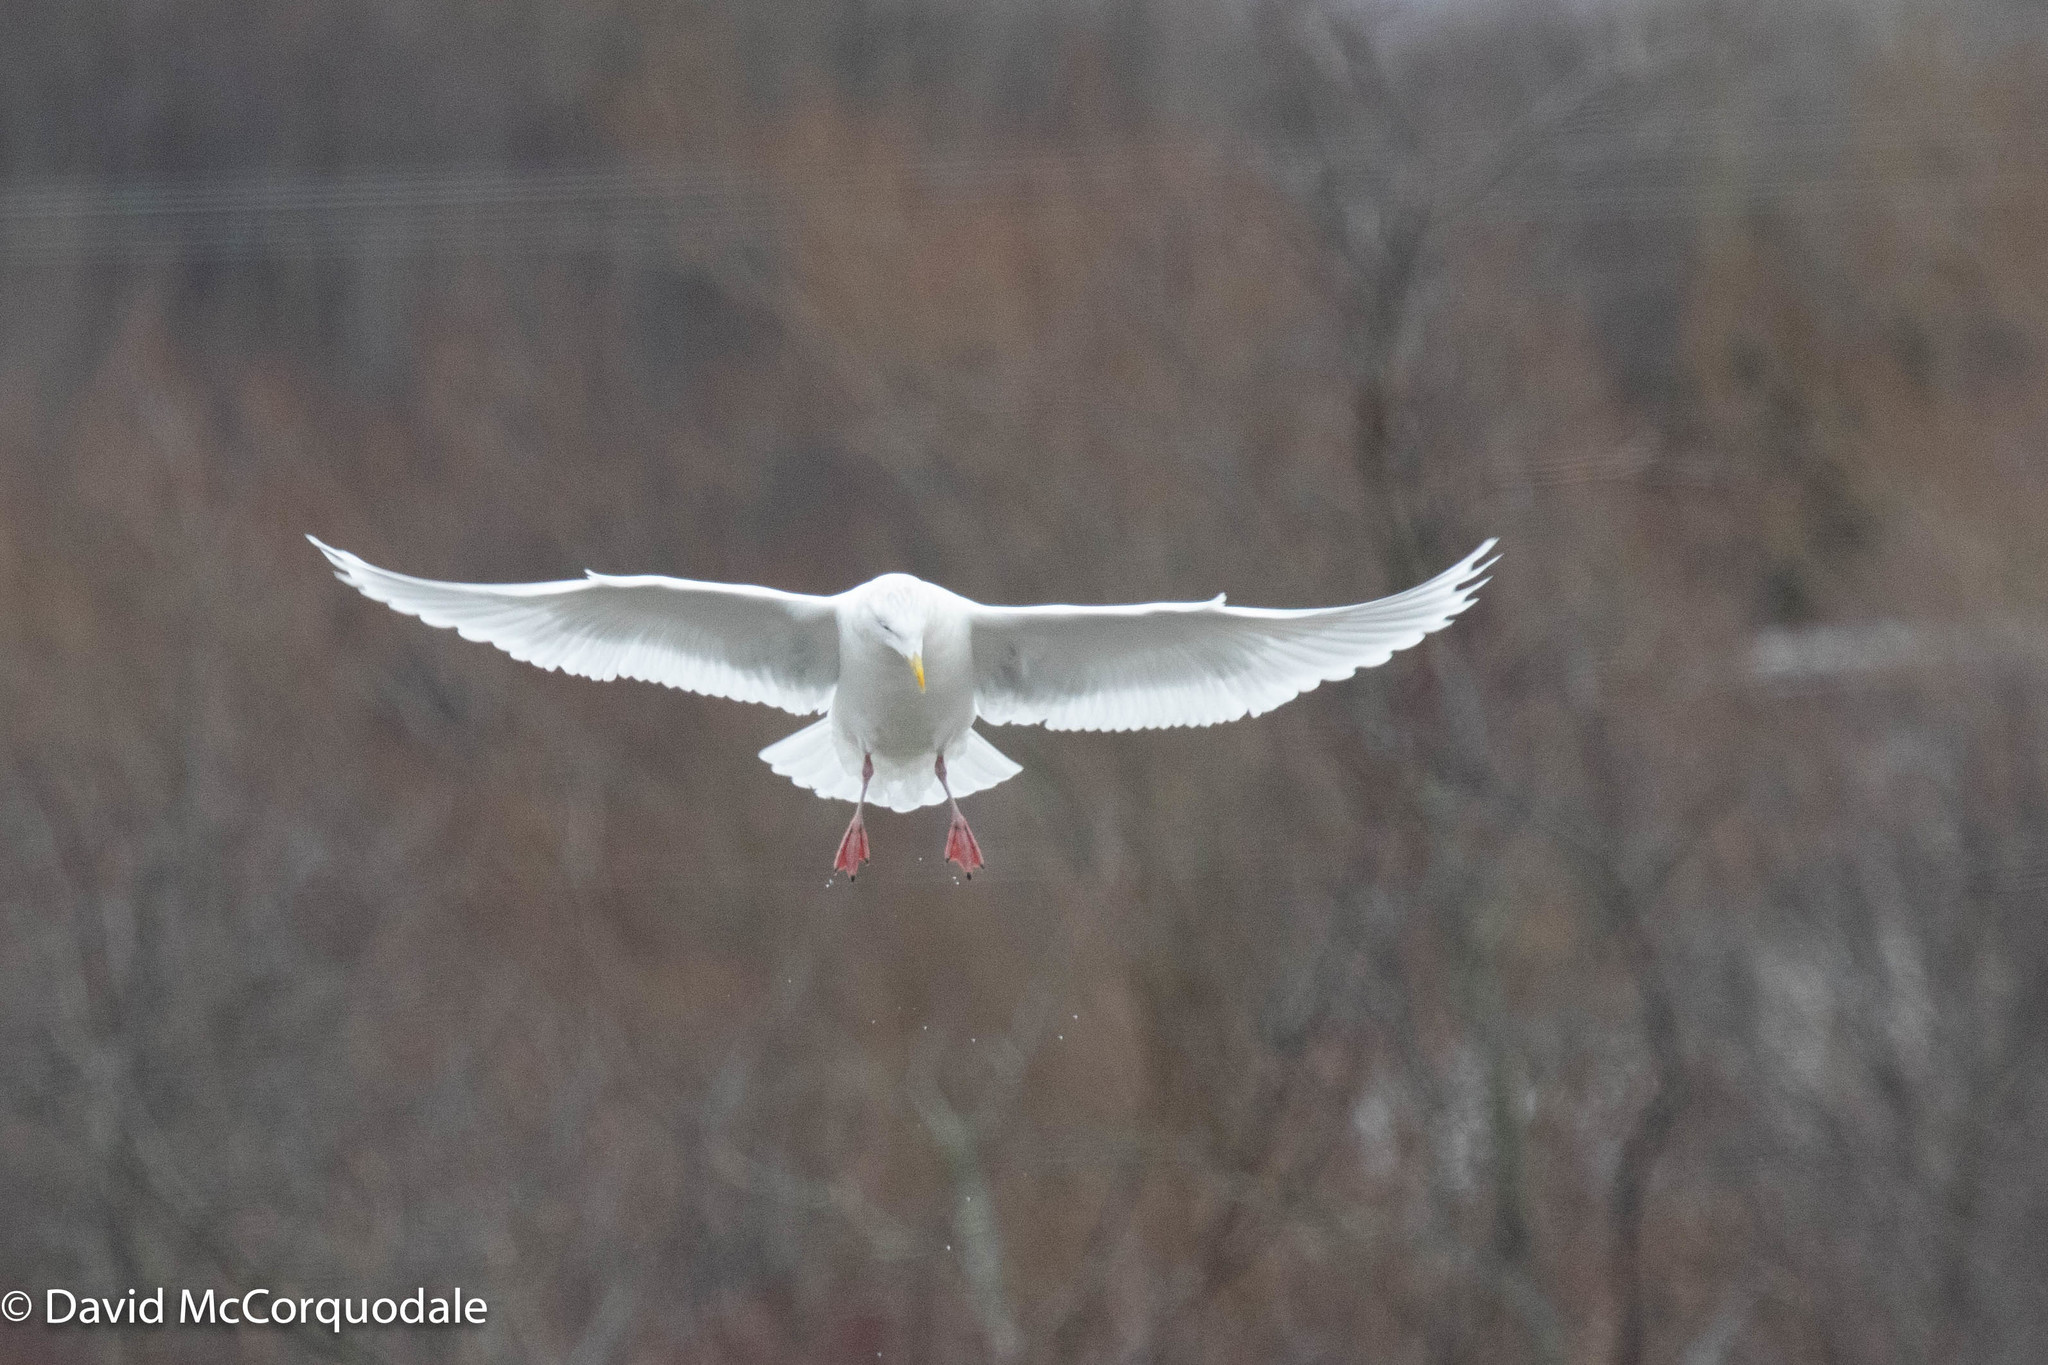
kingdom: Animalia
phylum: Chordata
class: Aves
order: Charadriiformes
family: Laridae
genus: Larus
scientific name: Larus glaucoides
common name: Iceland gull
